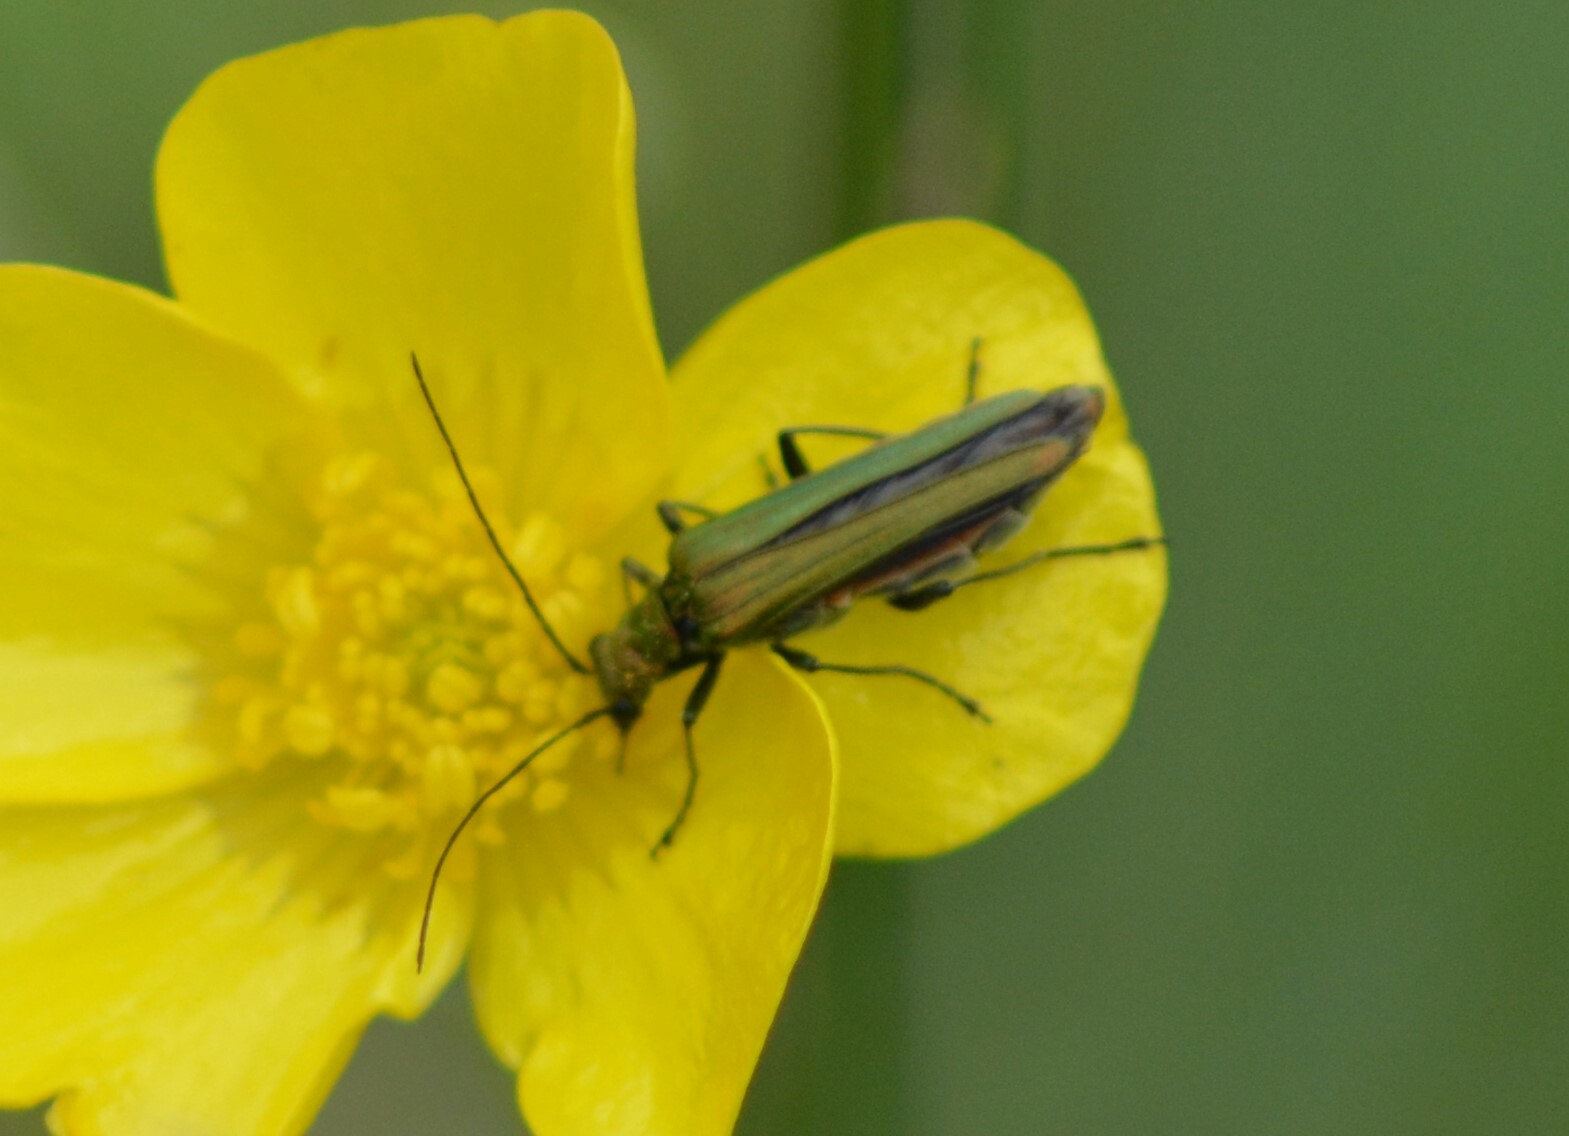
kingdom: Animalia
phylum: Arthropoda
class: Insecta
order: Coleoptera
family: Oedemeridae
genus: Oedemera
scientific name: Oedemera nobilis
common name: Swollen-thighed beetle
